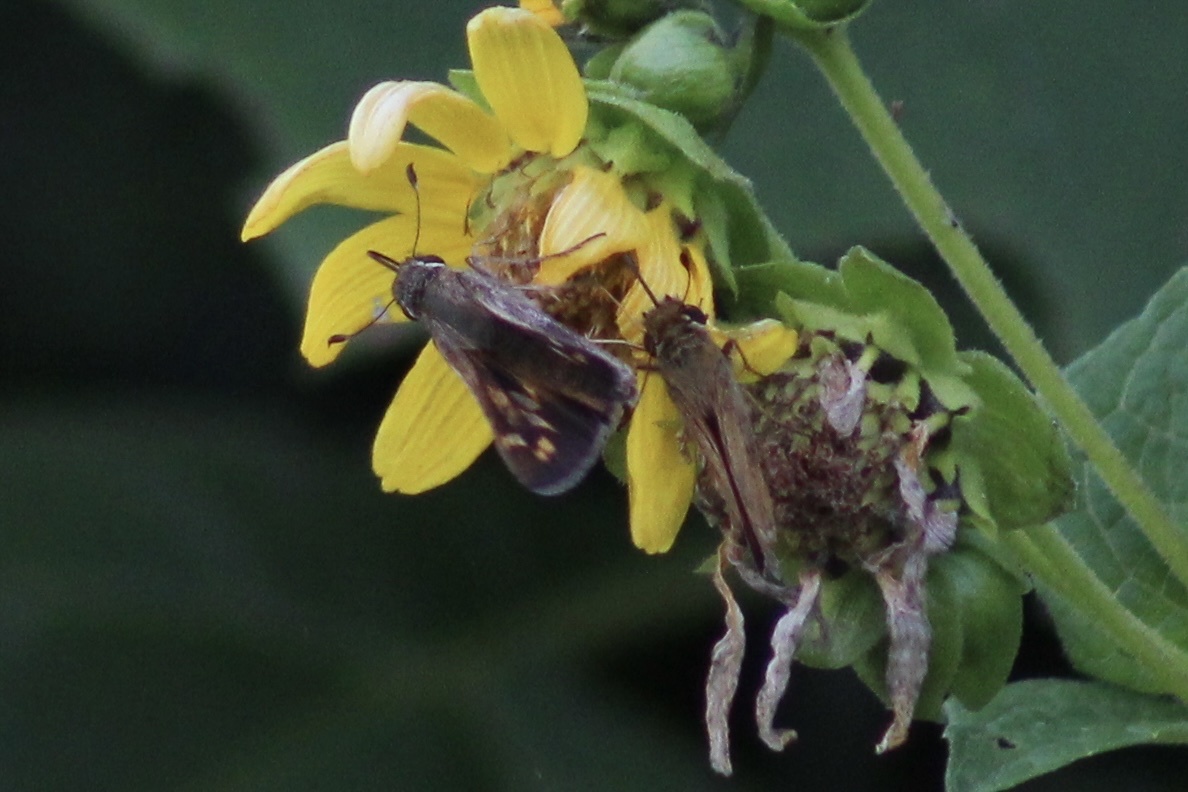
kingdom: Animalia
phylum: Arthropoda
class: Insecta
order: Lepidoptera
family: Hesperiidae
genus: Atalopedes
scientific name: Atalopedes
